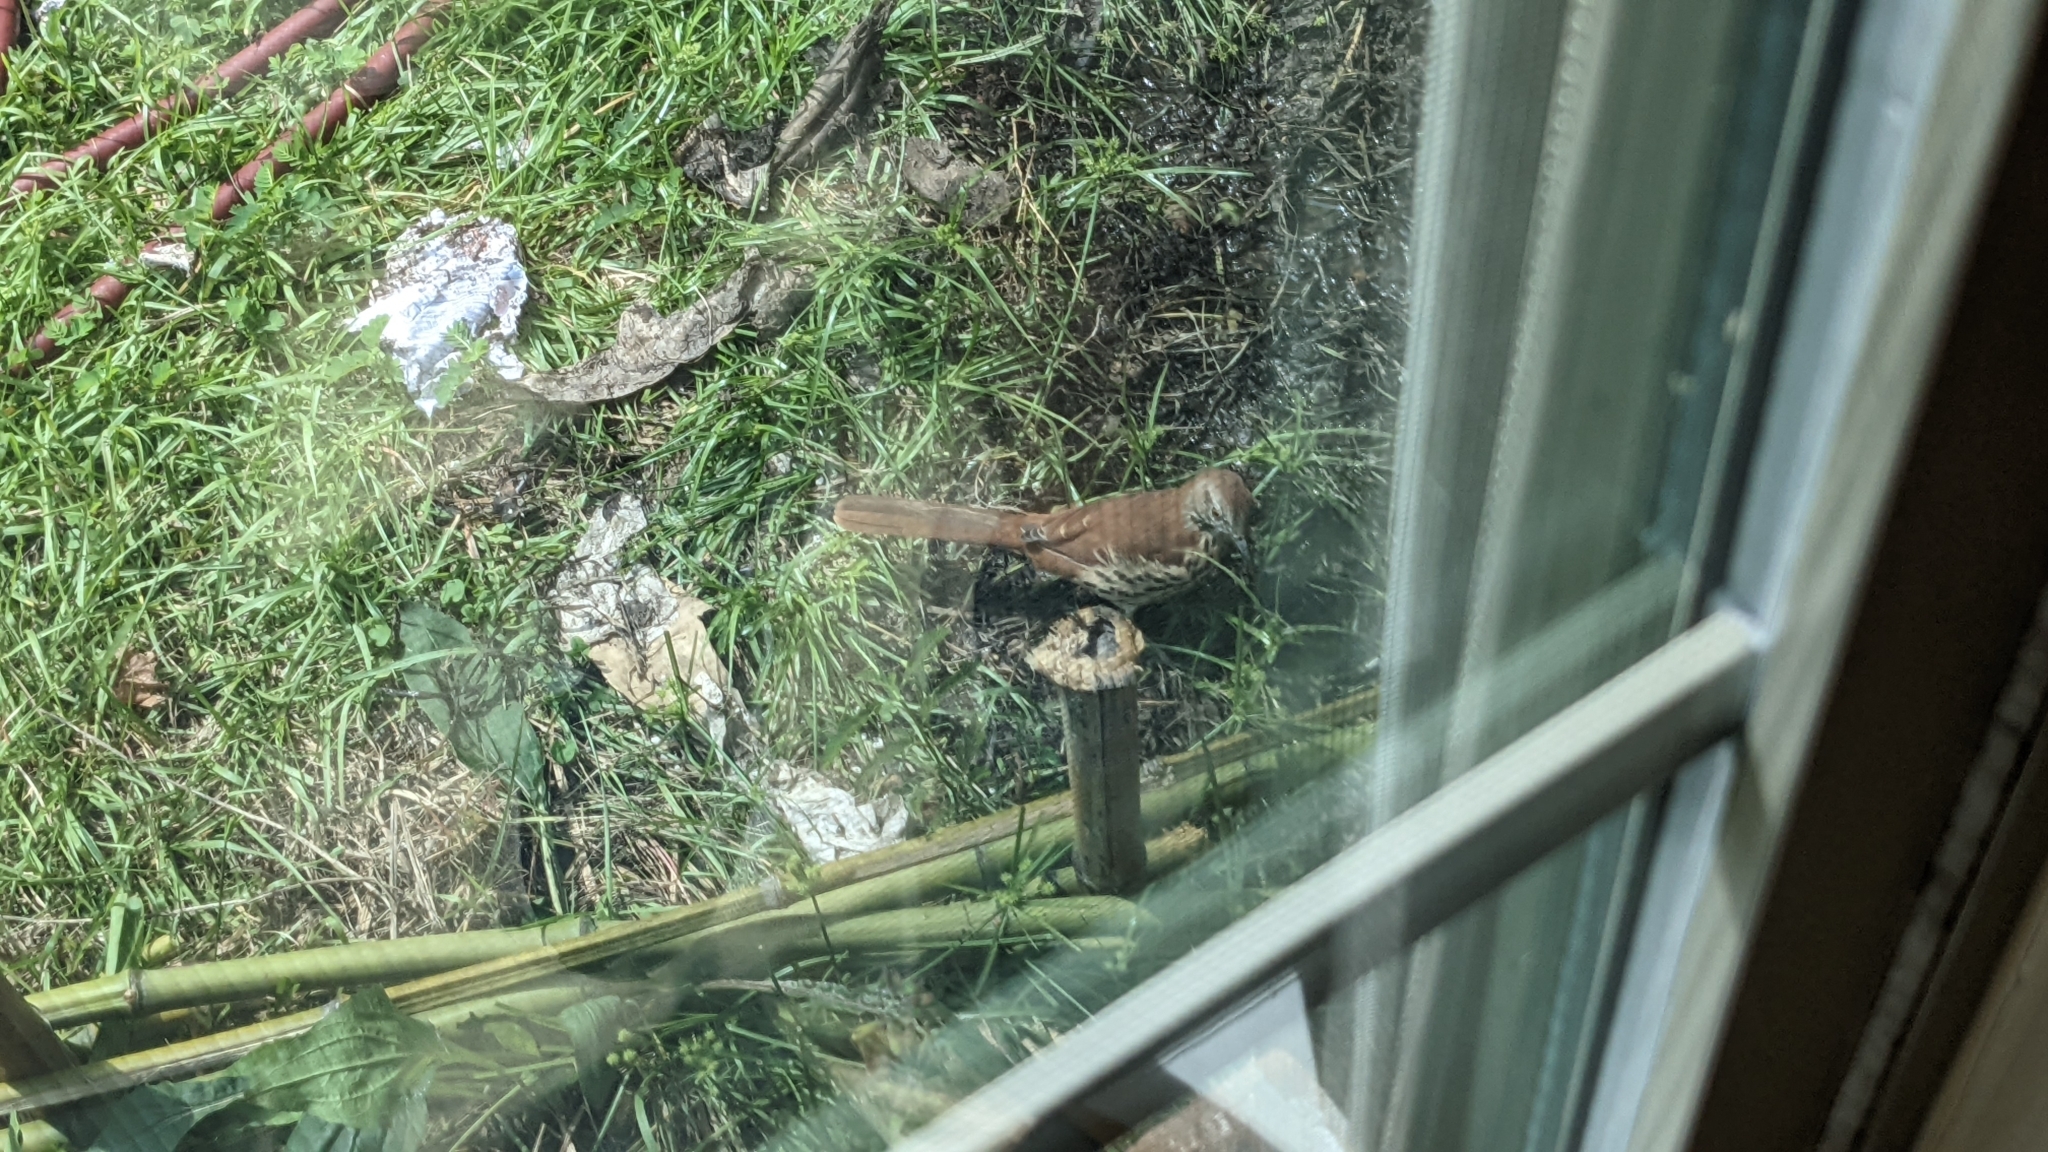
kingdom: Animalia
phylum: Chordata
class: Aves
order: Passeriformes
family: Mimidae
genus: Toxostoma
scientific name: Toxostoma rufum
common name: Brown thrasher
